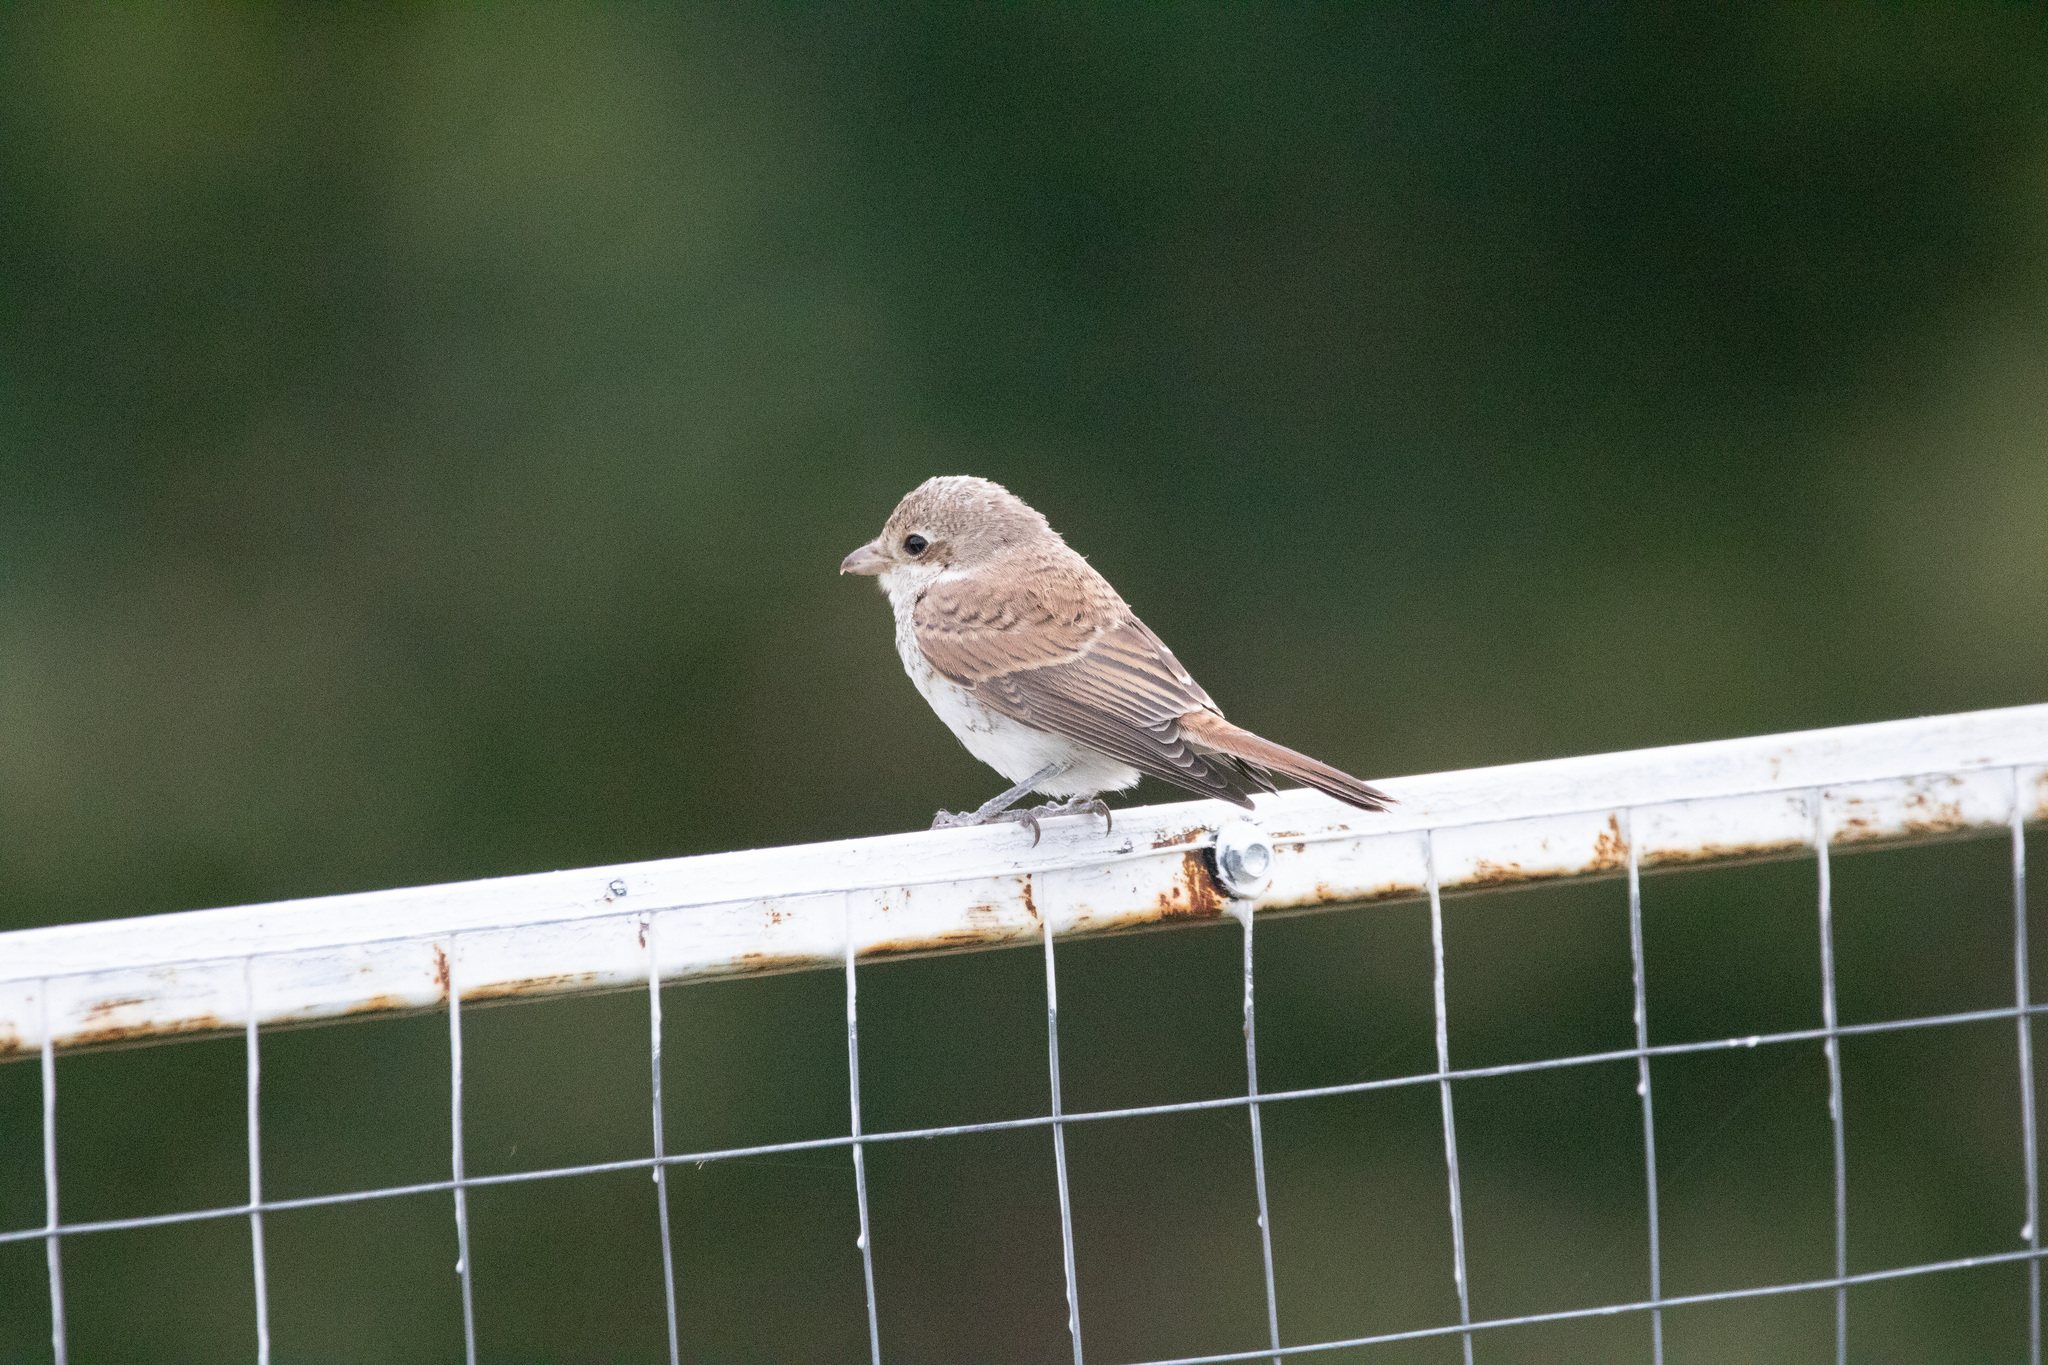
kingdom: Animalia
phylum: Chordata
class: Aves
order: Passeriformes
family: Laniidae
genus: Lanius
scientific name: Lanius collurio
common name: Red-backed shrike
